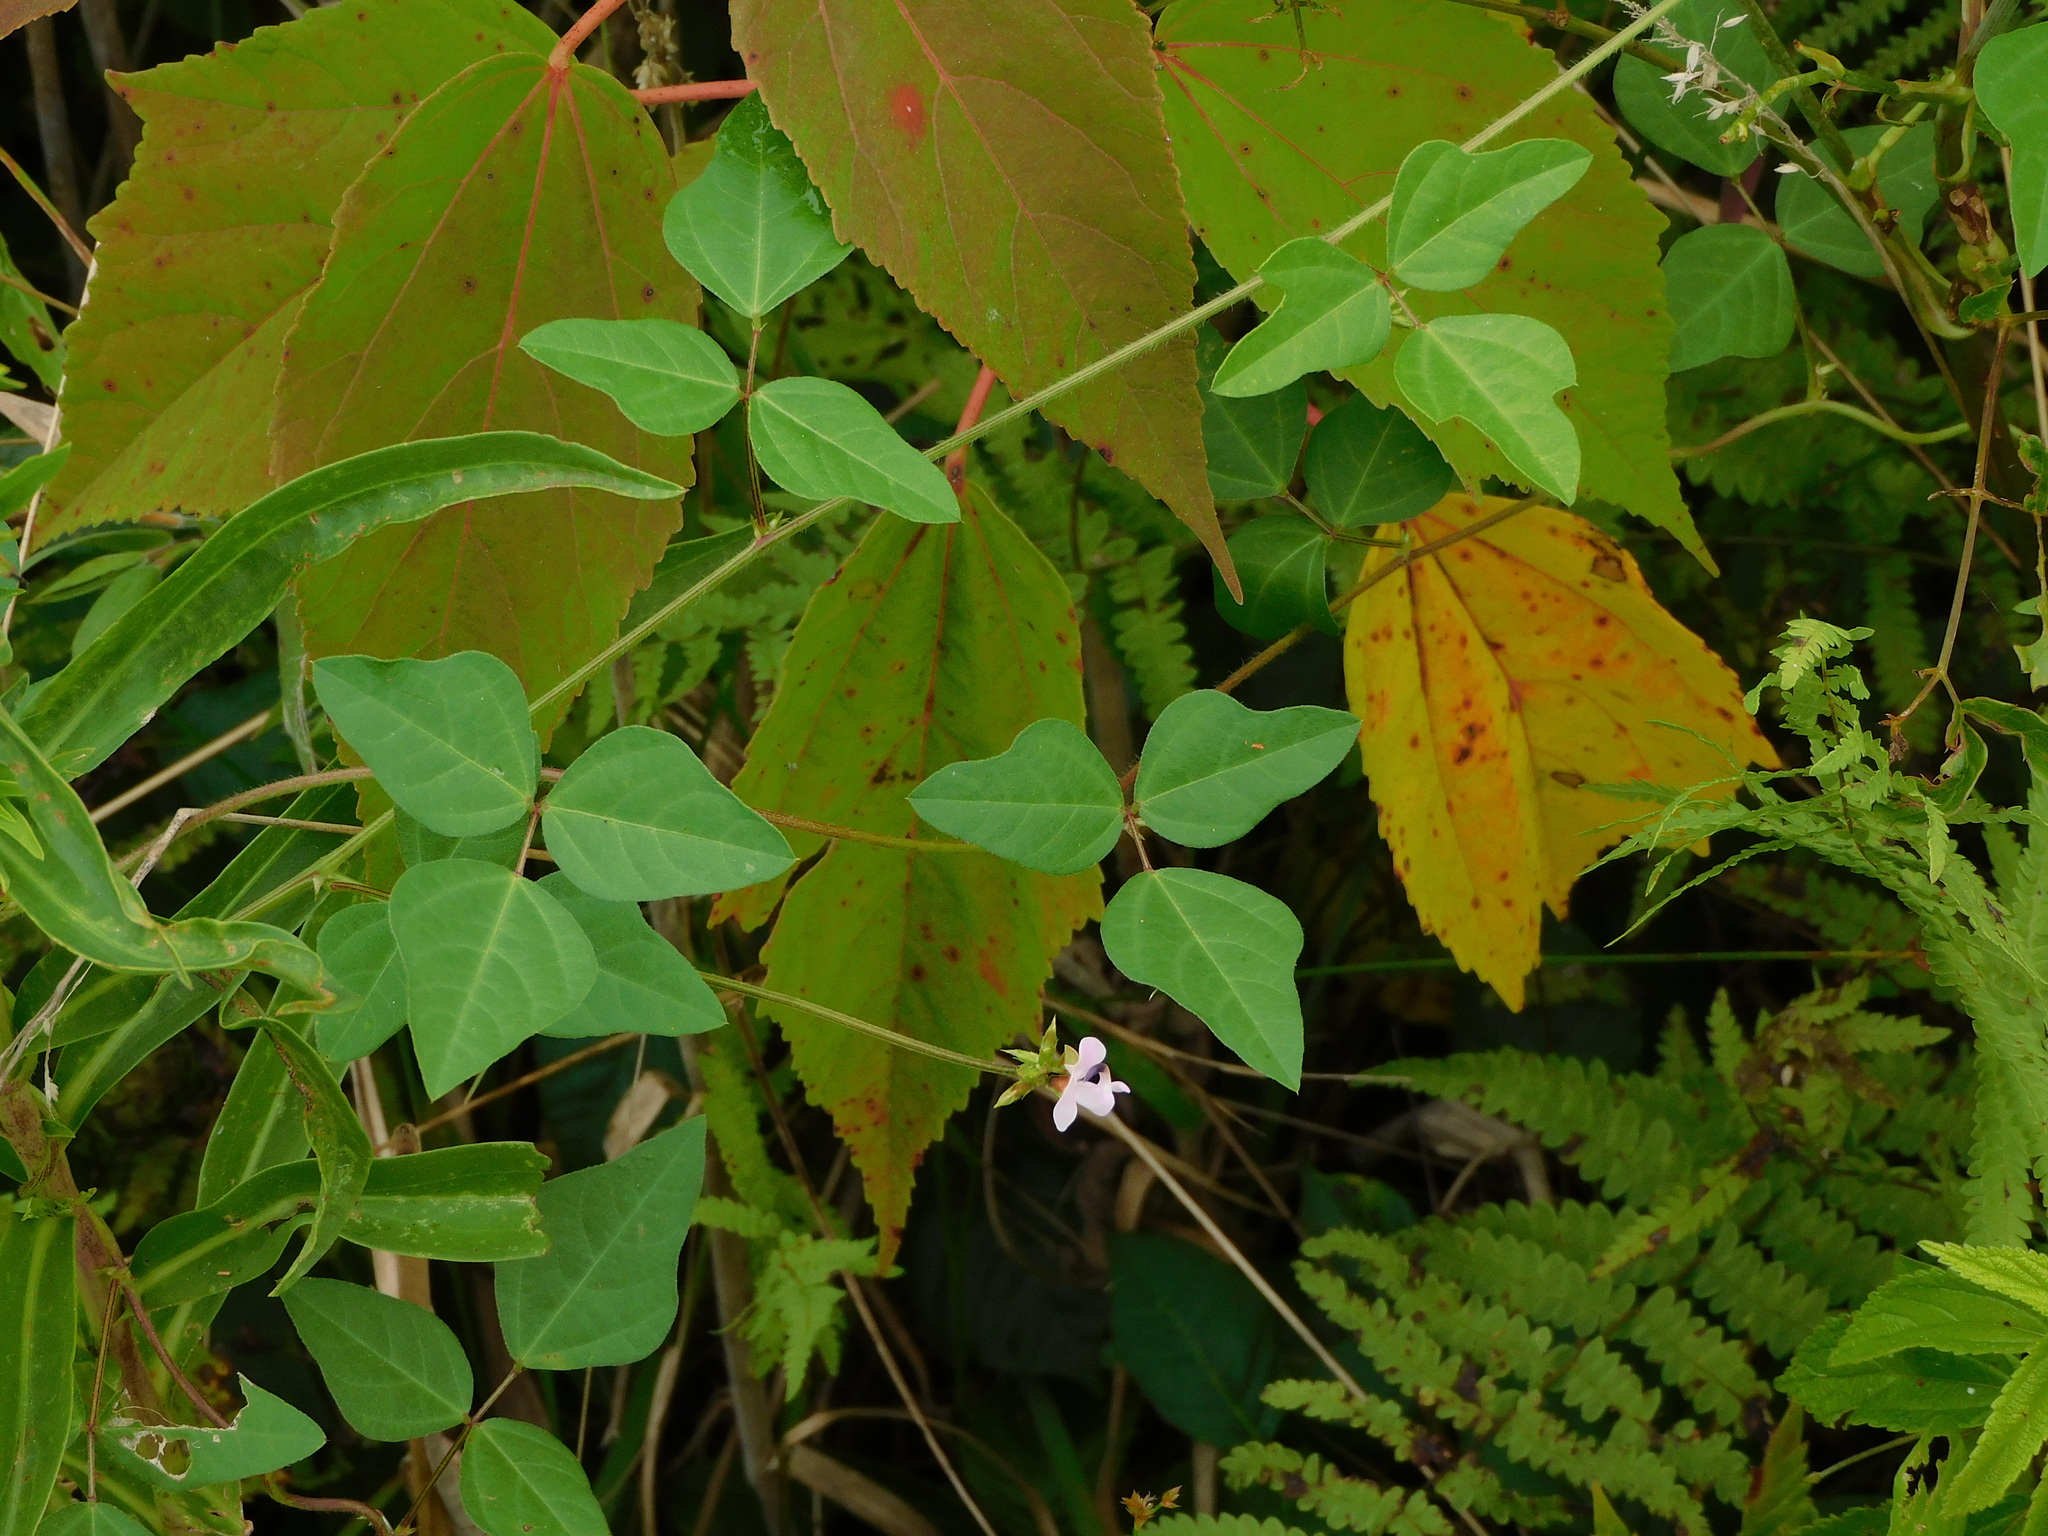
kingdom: Plantae
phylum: Tracheophyta
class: Magnoliopsida
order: Fabales
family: Fabaceae
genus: Strophostyles
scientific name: Strophostyles helvola
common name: Trailing wild bean
